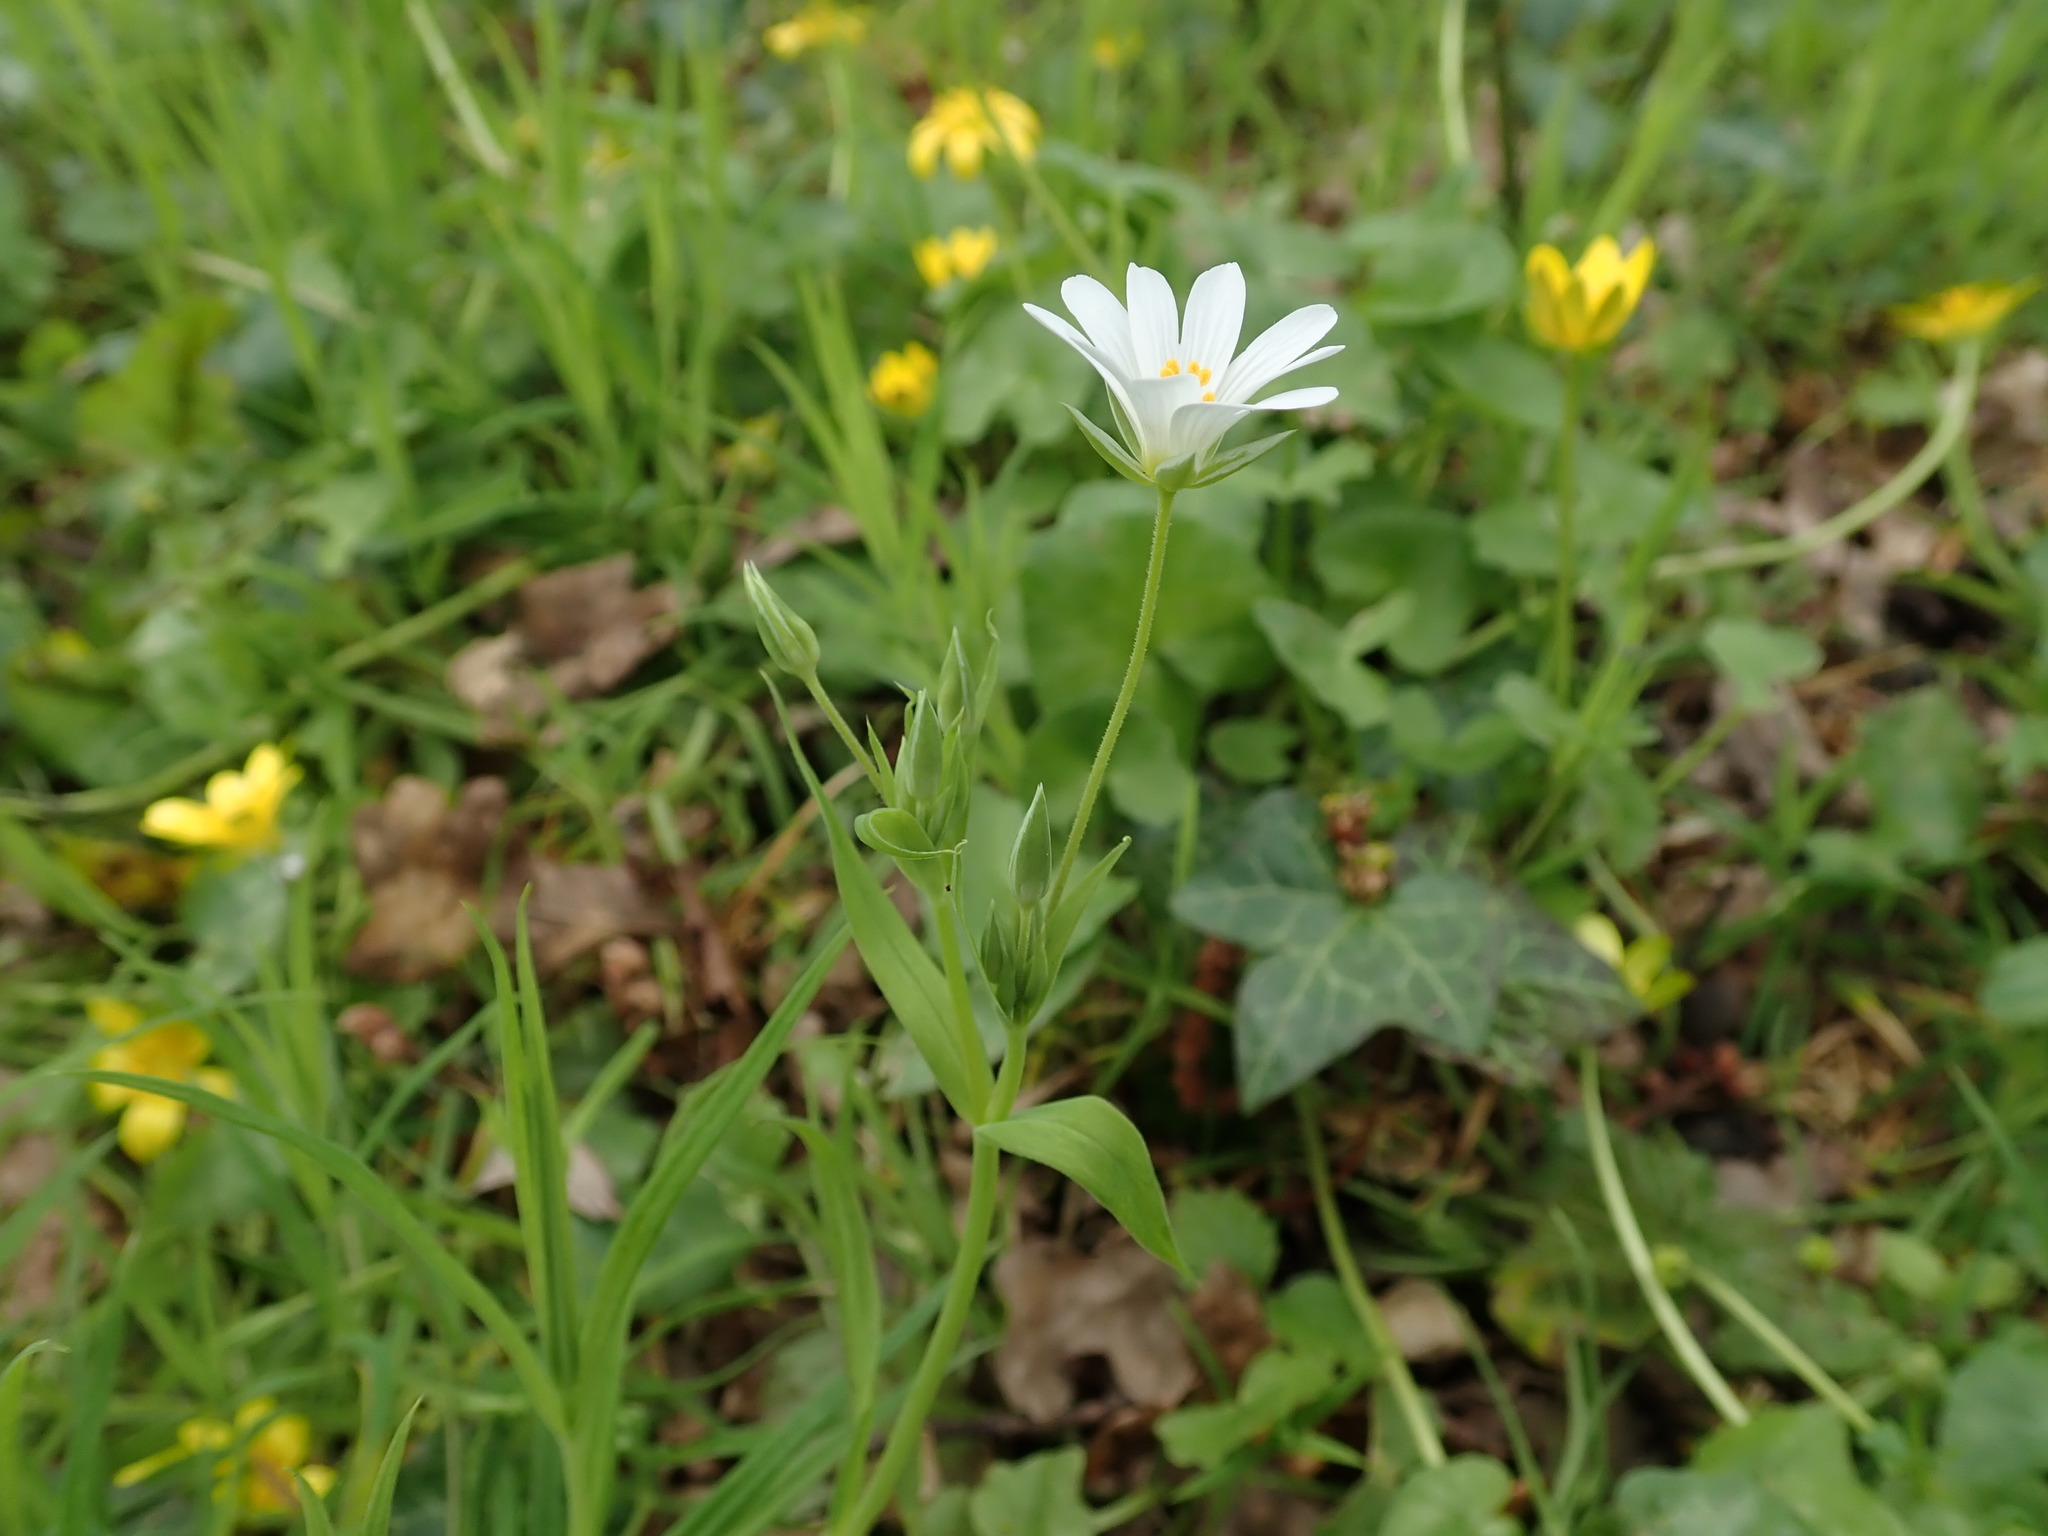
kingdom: Plantae
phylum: Tracheophyta
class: Magnoliopsida
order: Caryophyllales
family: Caryophyllaceae
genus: Rabelera
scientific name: Rabelera holostea
